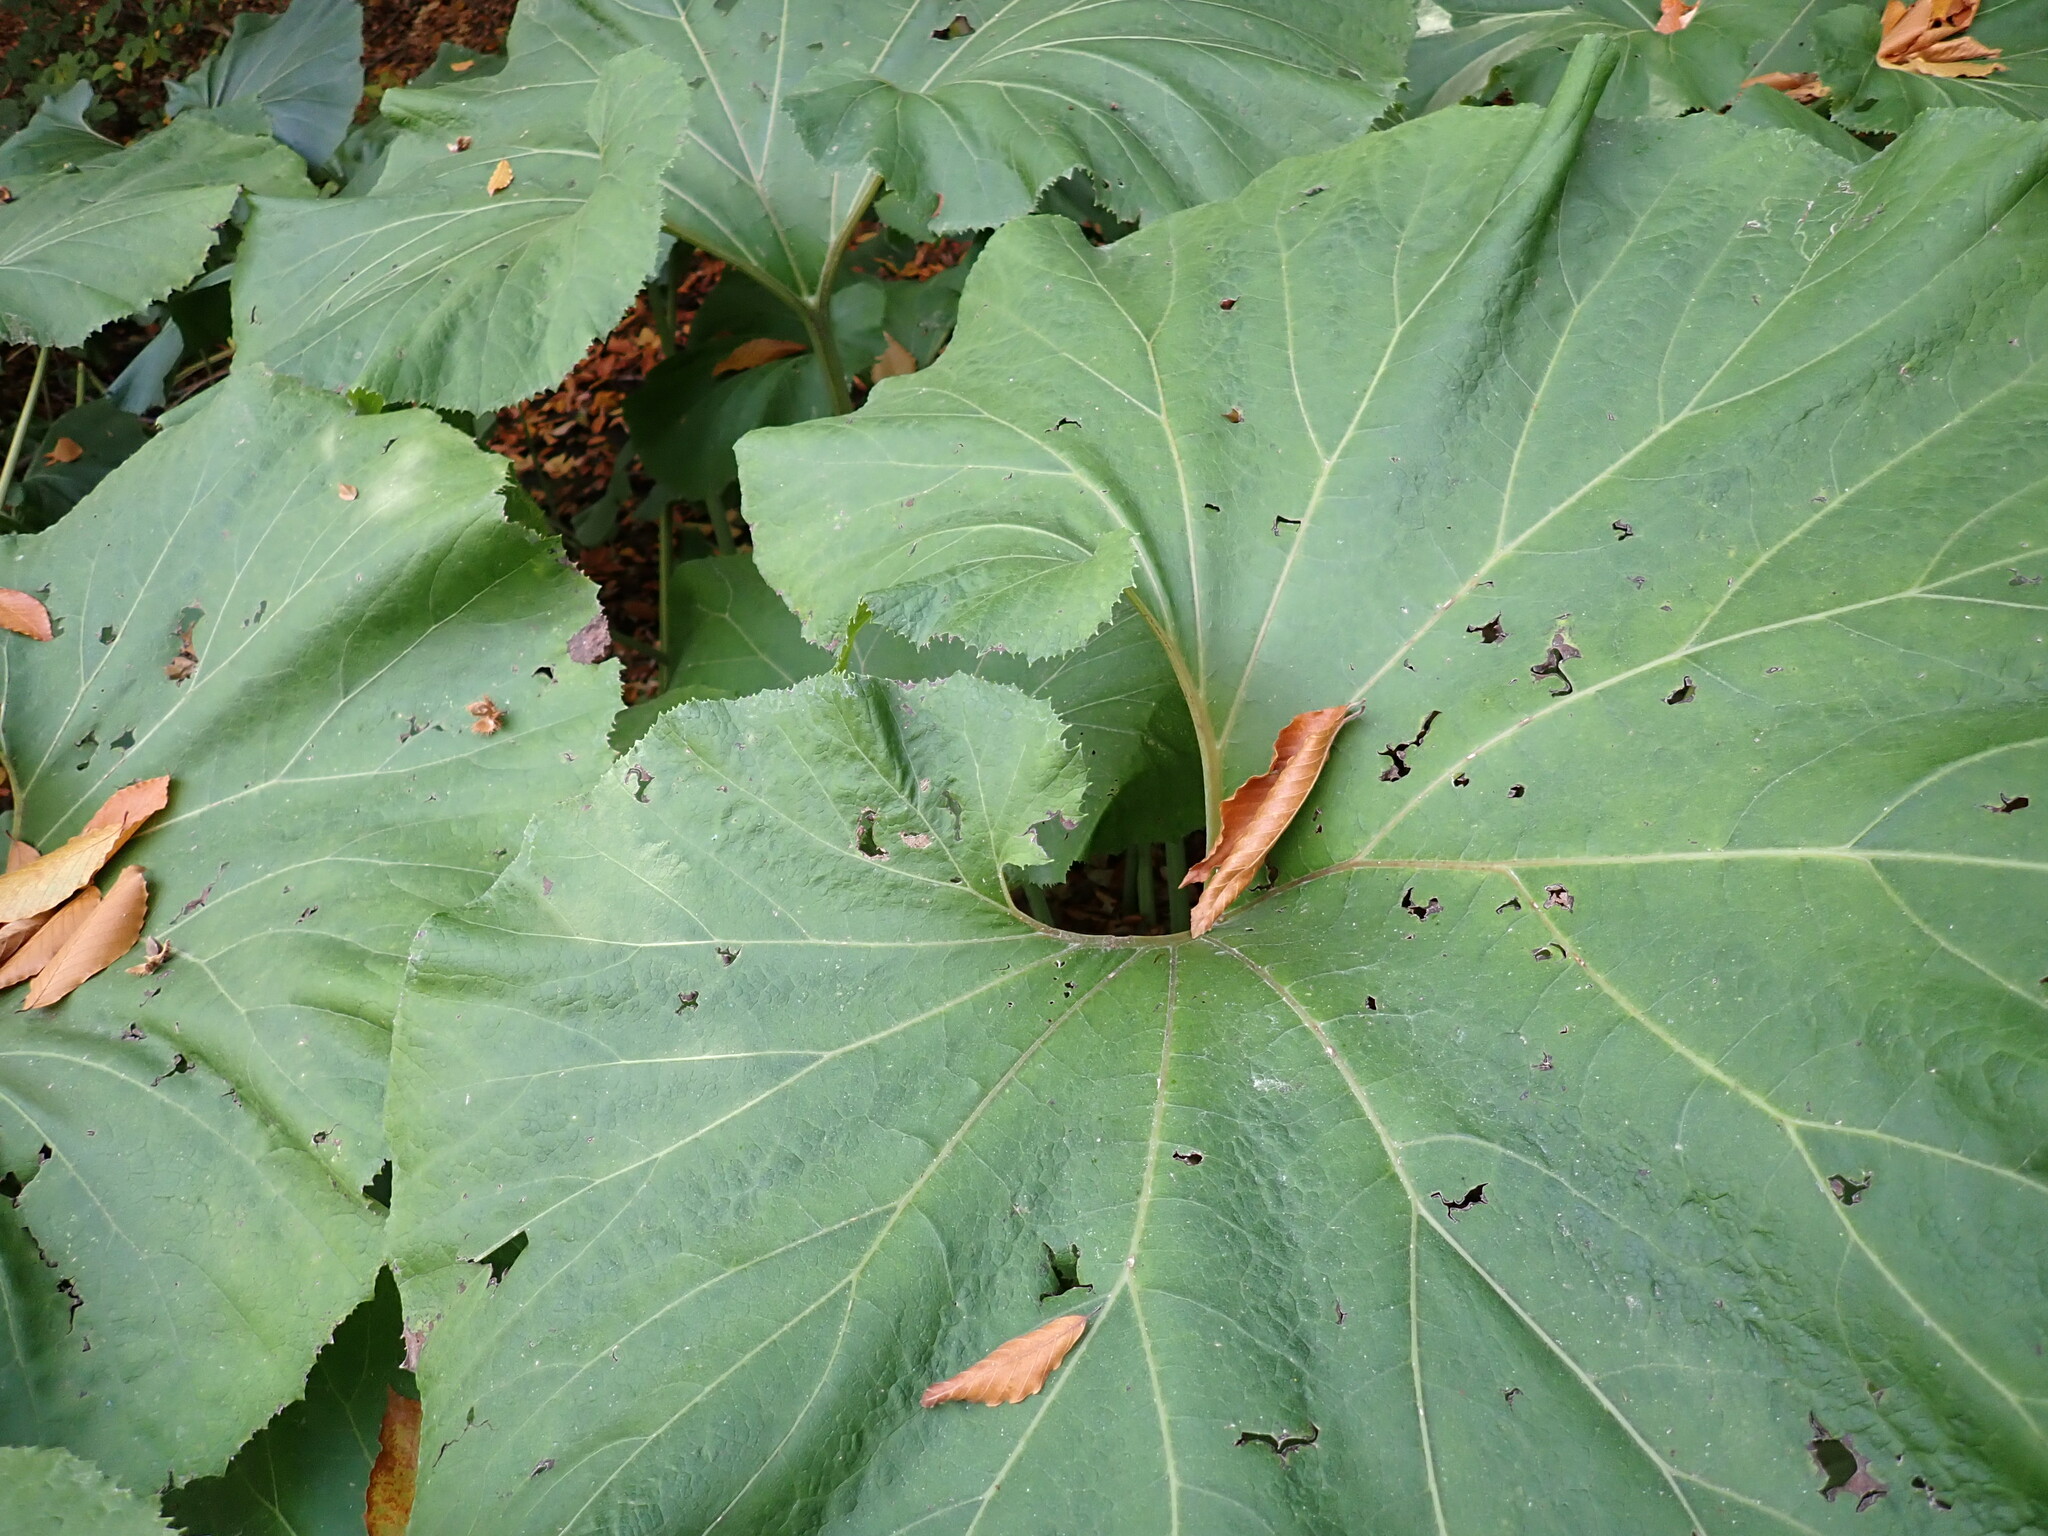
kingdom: Plantae
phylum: Tracheophyta
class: Magnoliopsida
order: Asterales
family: Asteraceae
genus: Petasites
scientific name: Petasites japonicus
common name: Giant butterbur
